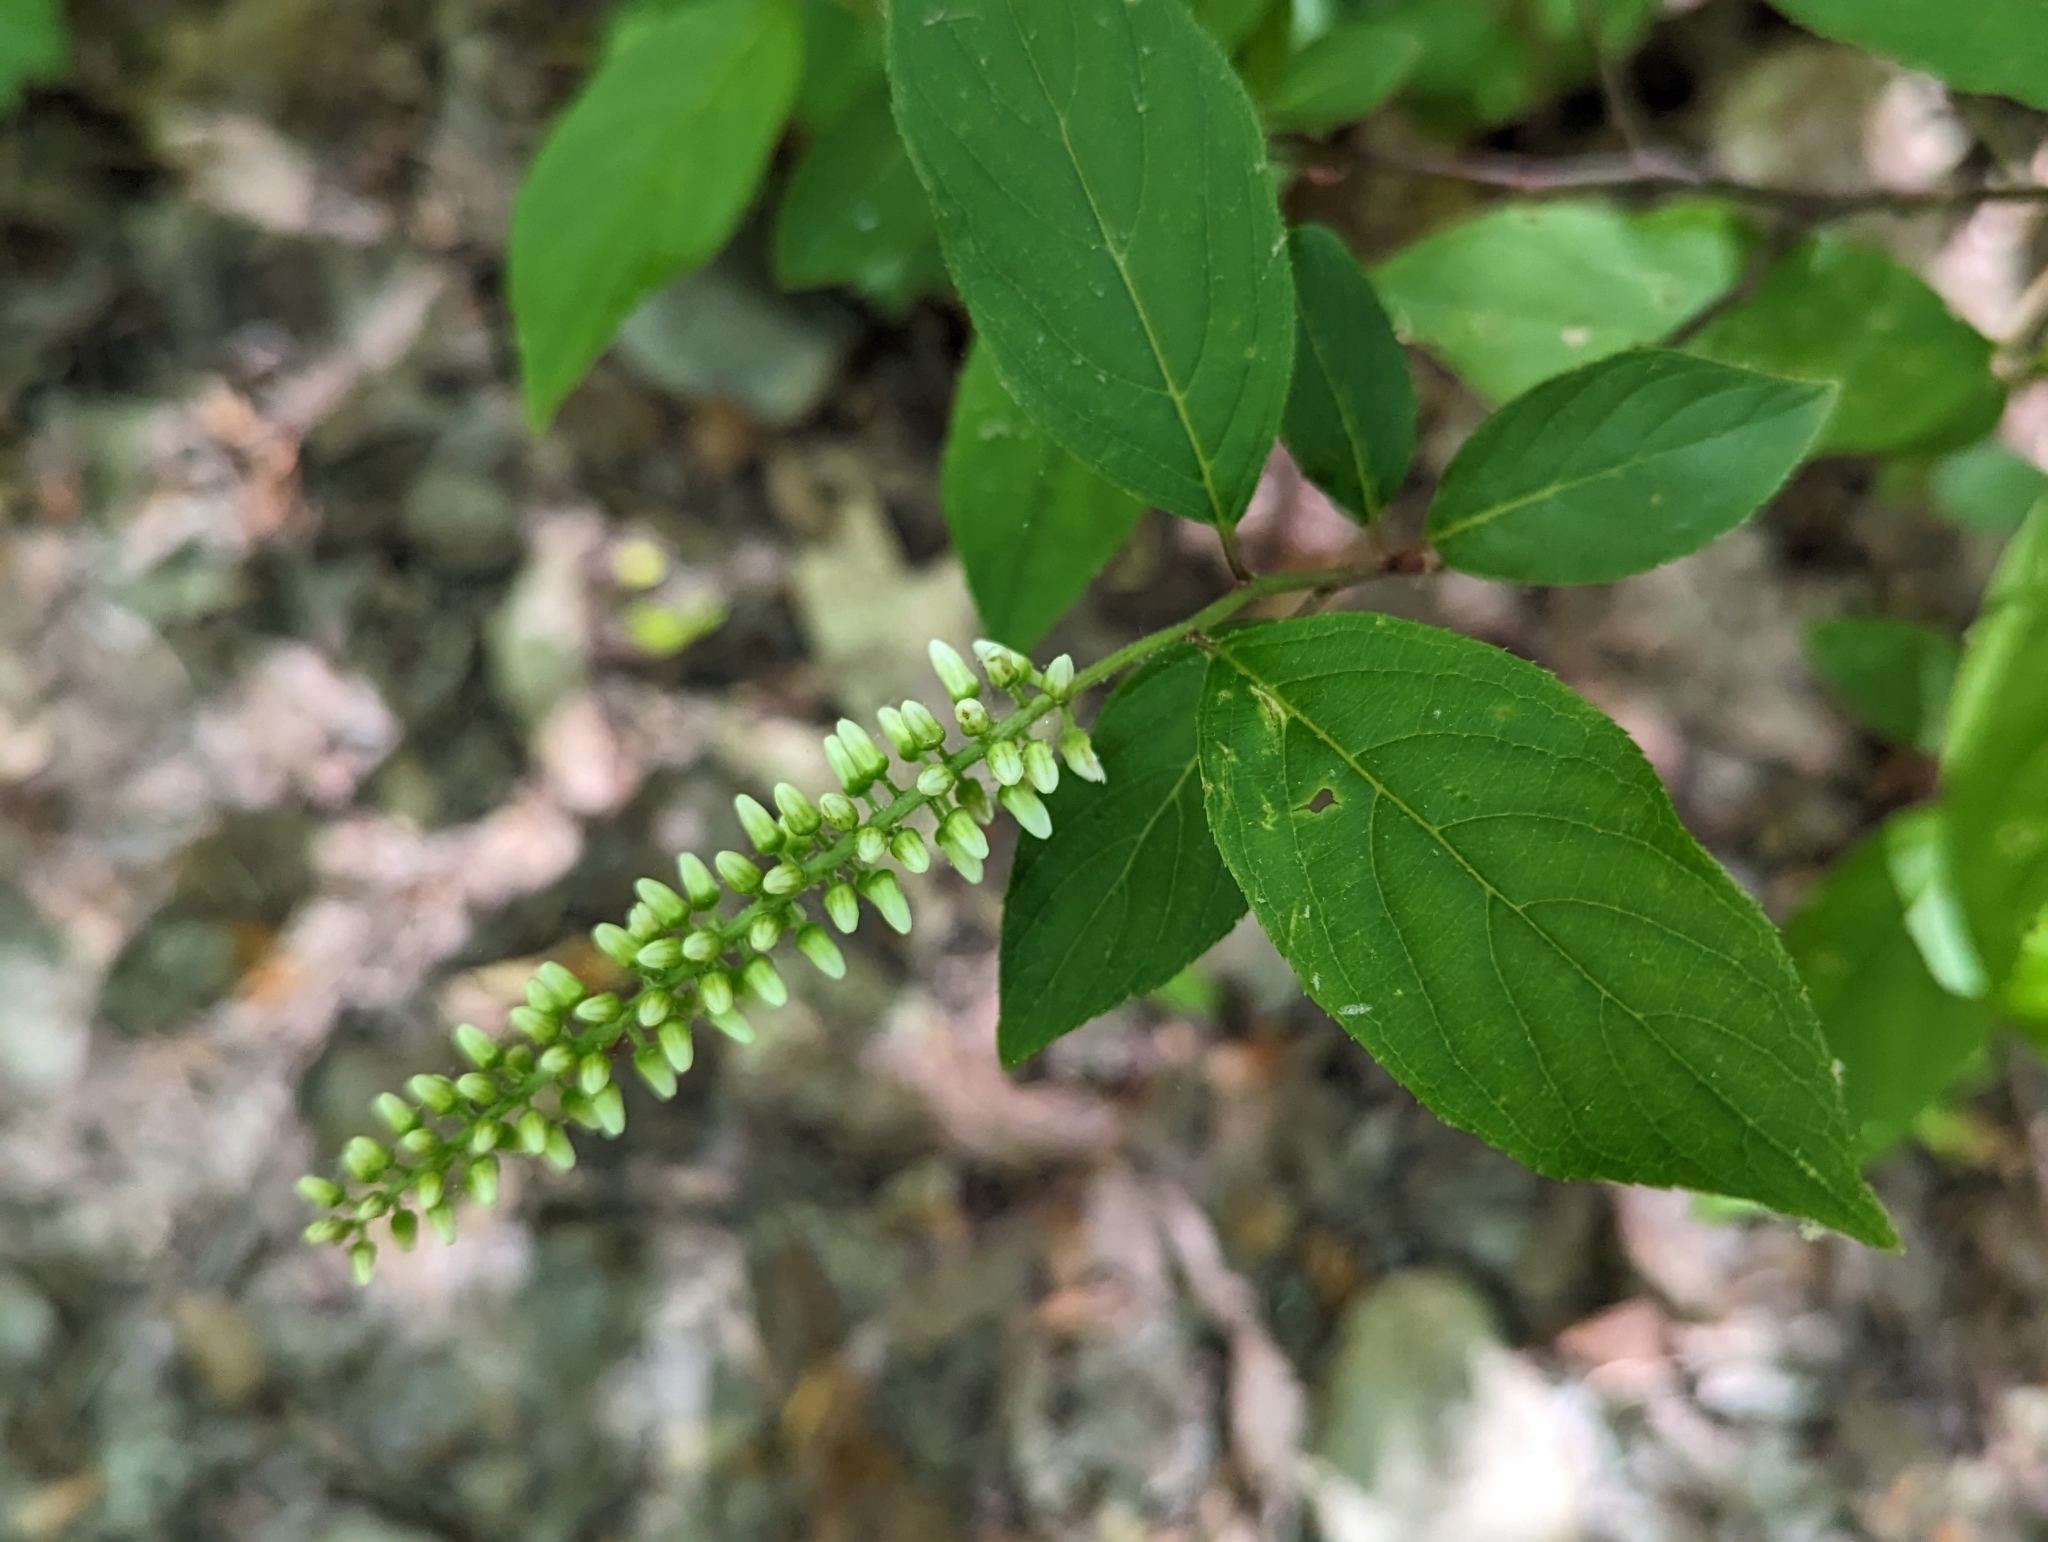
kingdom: Plantae
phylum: Tracheophyta
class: Magnoliopsida
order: Saxifragales
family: Iteaceae
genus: Itea
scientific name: Itea virginica
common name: Sweetspire
